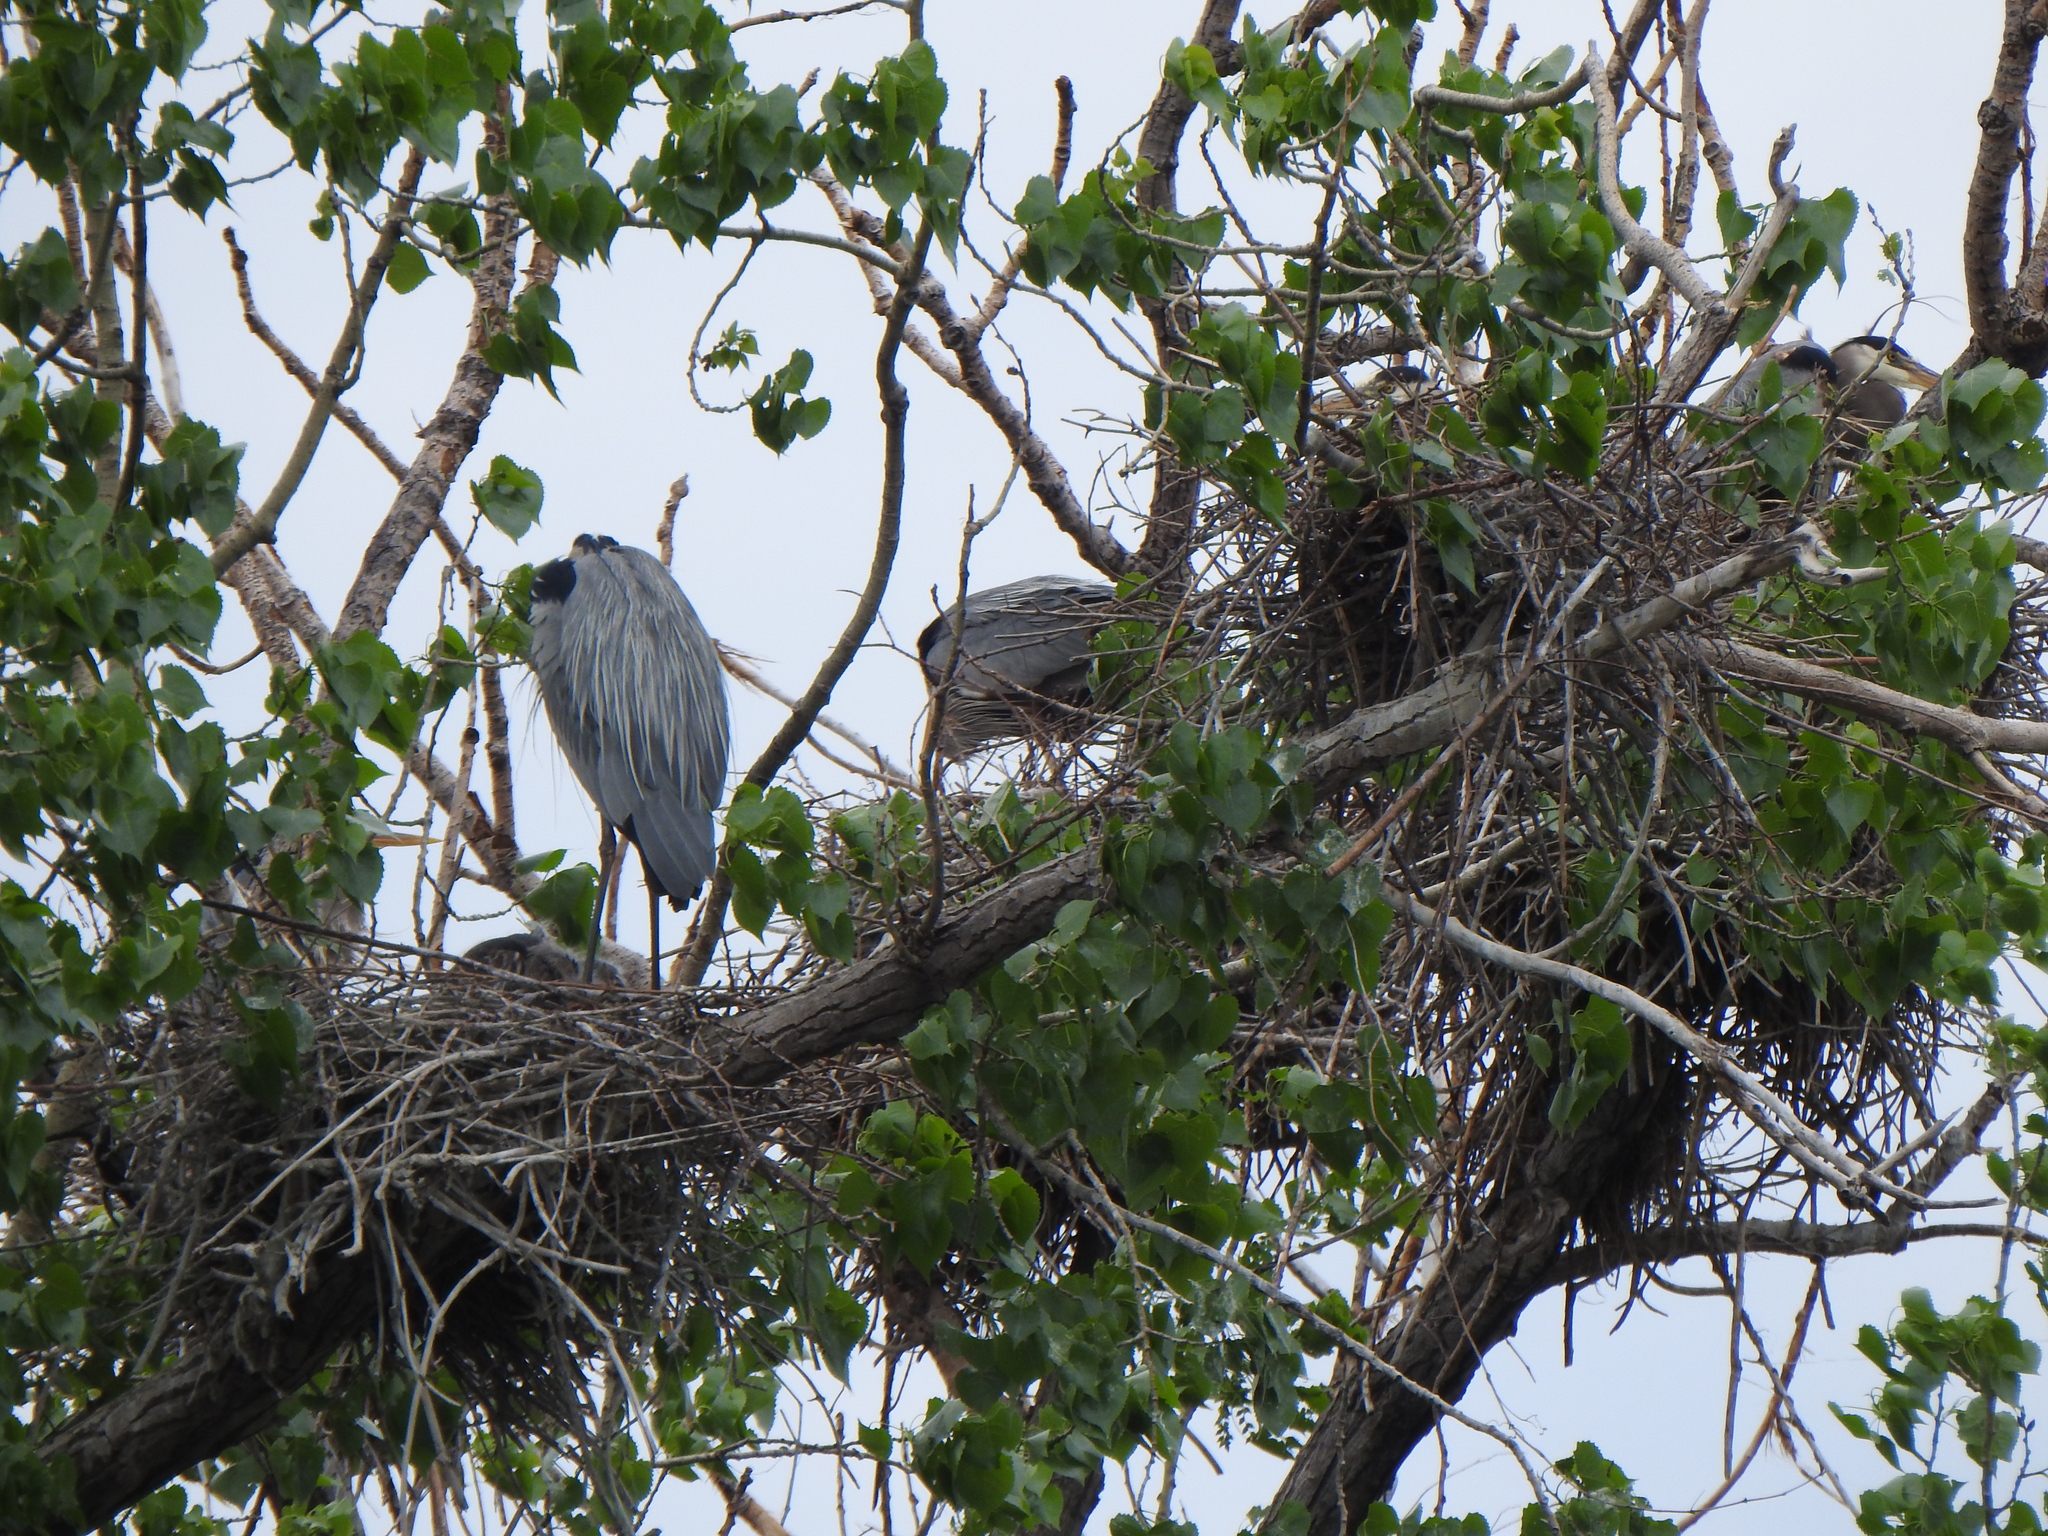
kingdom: Animalia
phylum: Chordata
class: Aves
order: Pelecaniformes
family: Ardeidae
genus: Ardea
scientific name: Ardea herodias
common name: Great blue heron
